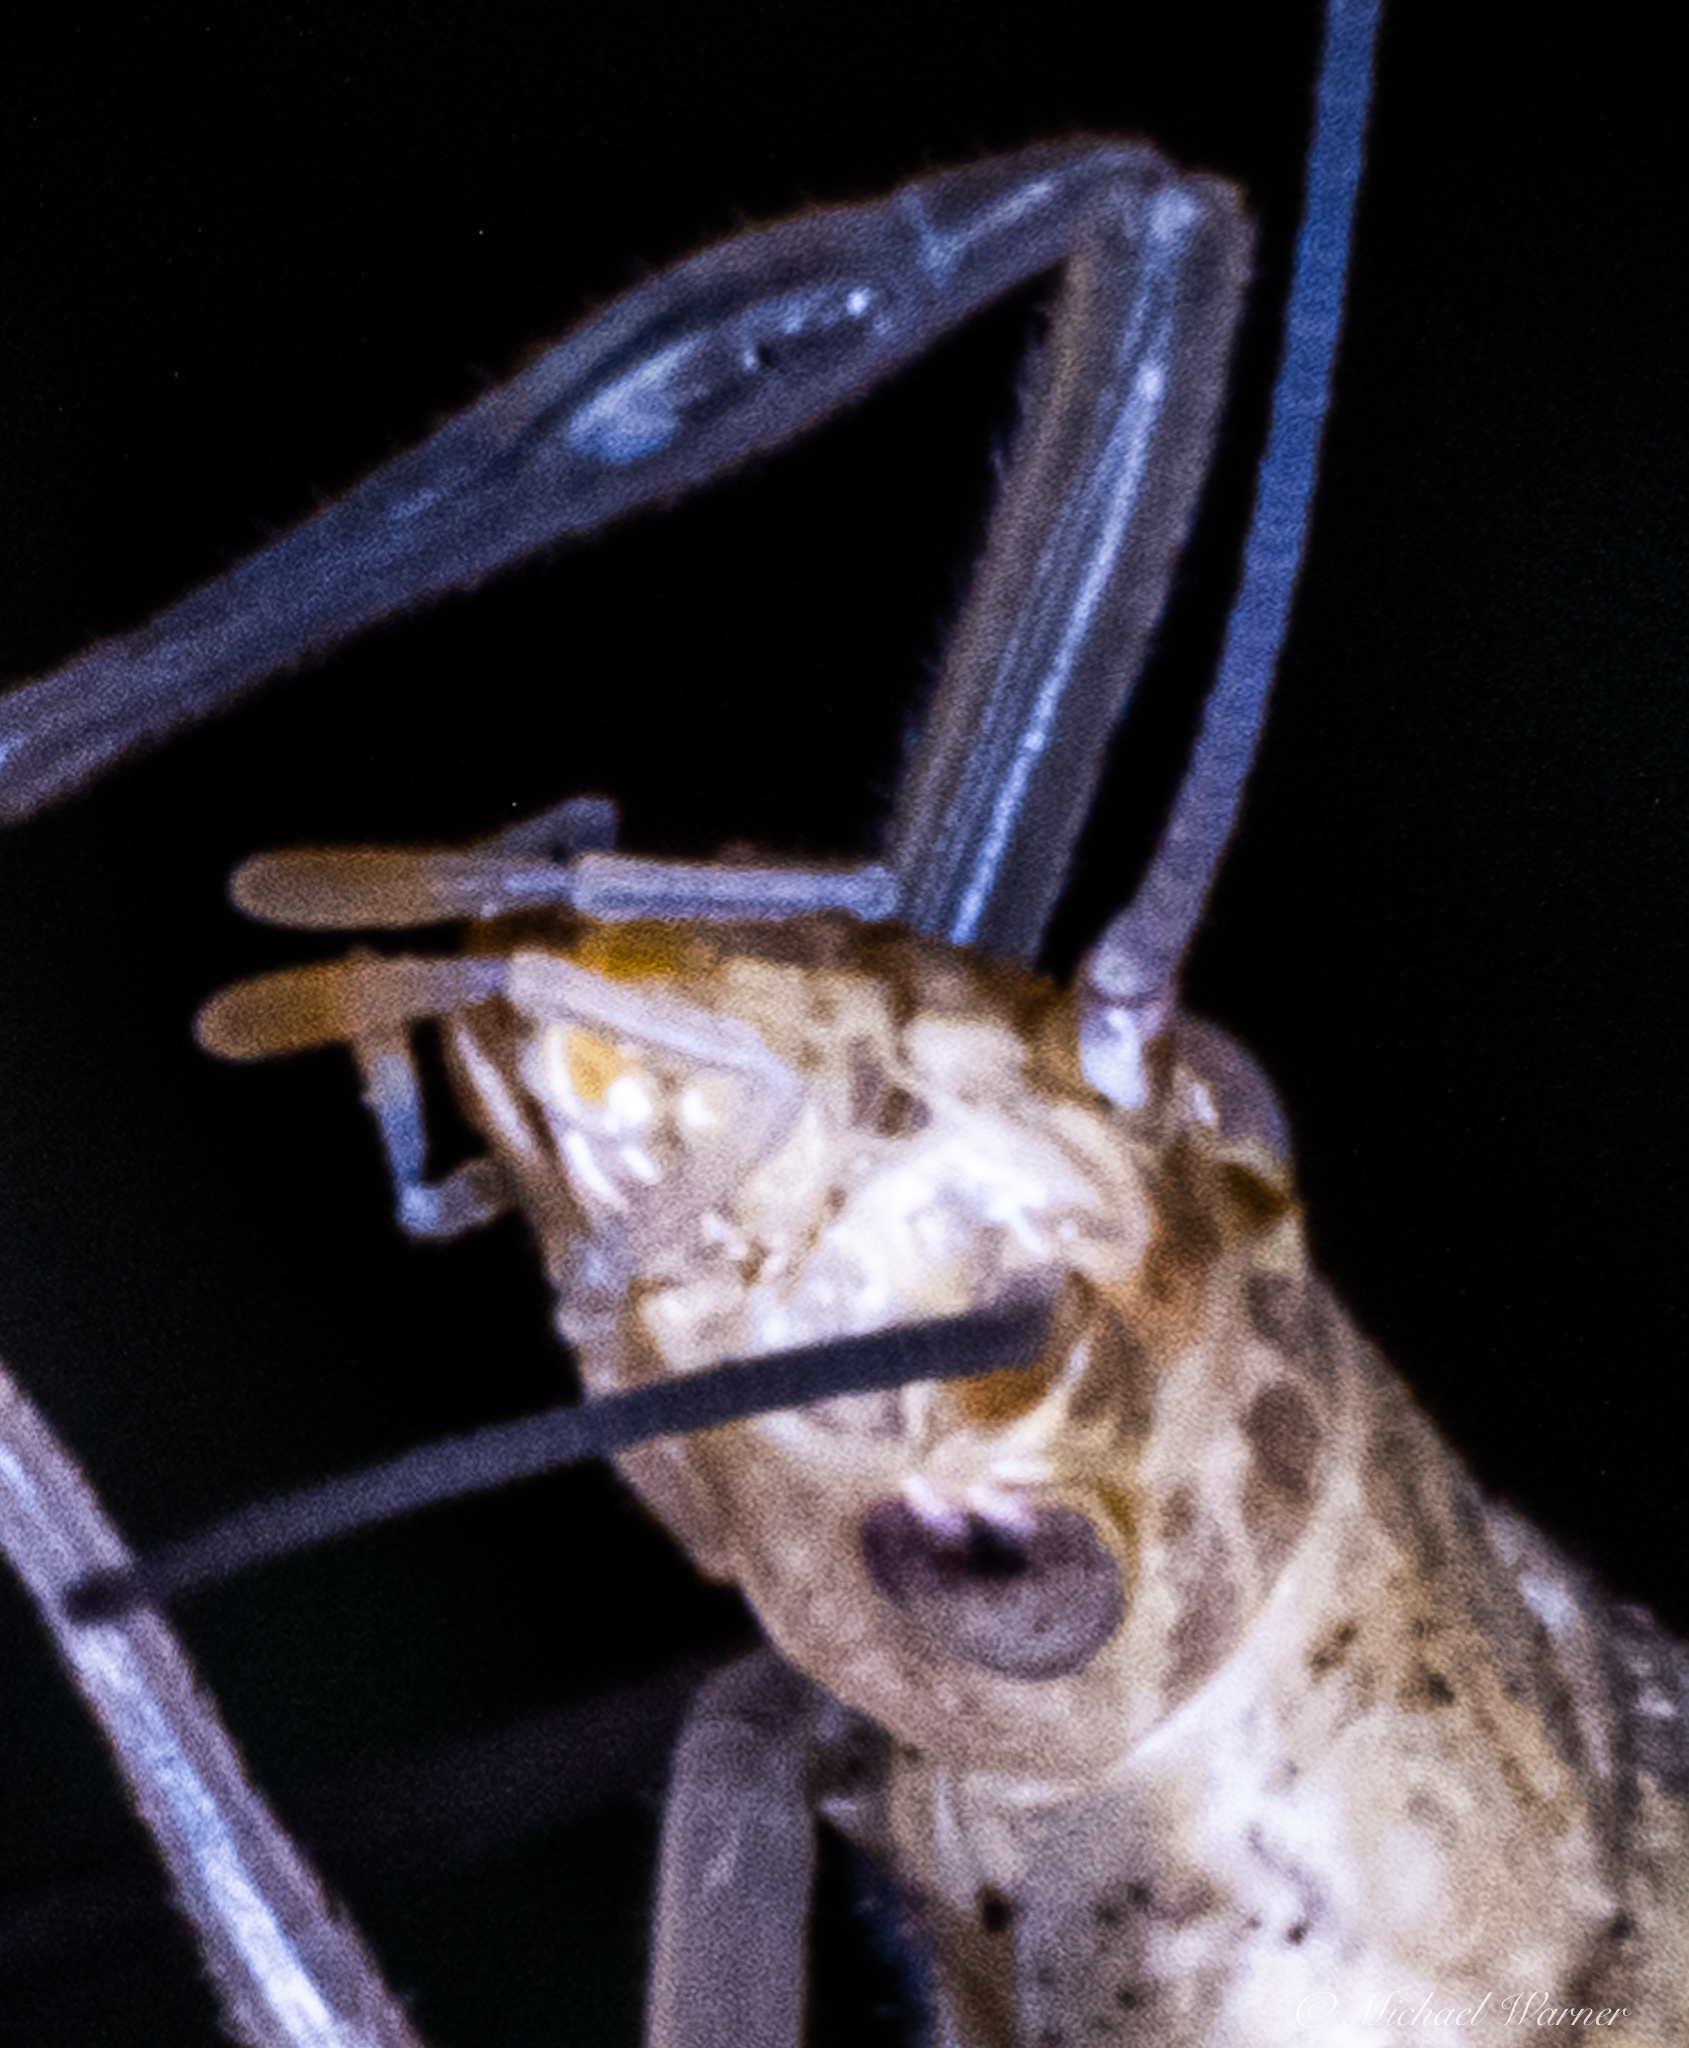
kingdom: Animalia
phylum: Arthropoda
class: Insecta
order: Orthoptera
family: Gryllidae
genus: Oecanthus
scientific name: Oecanthus rileyi
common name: Riley's tree cricket
